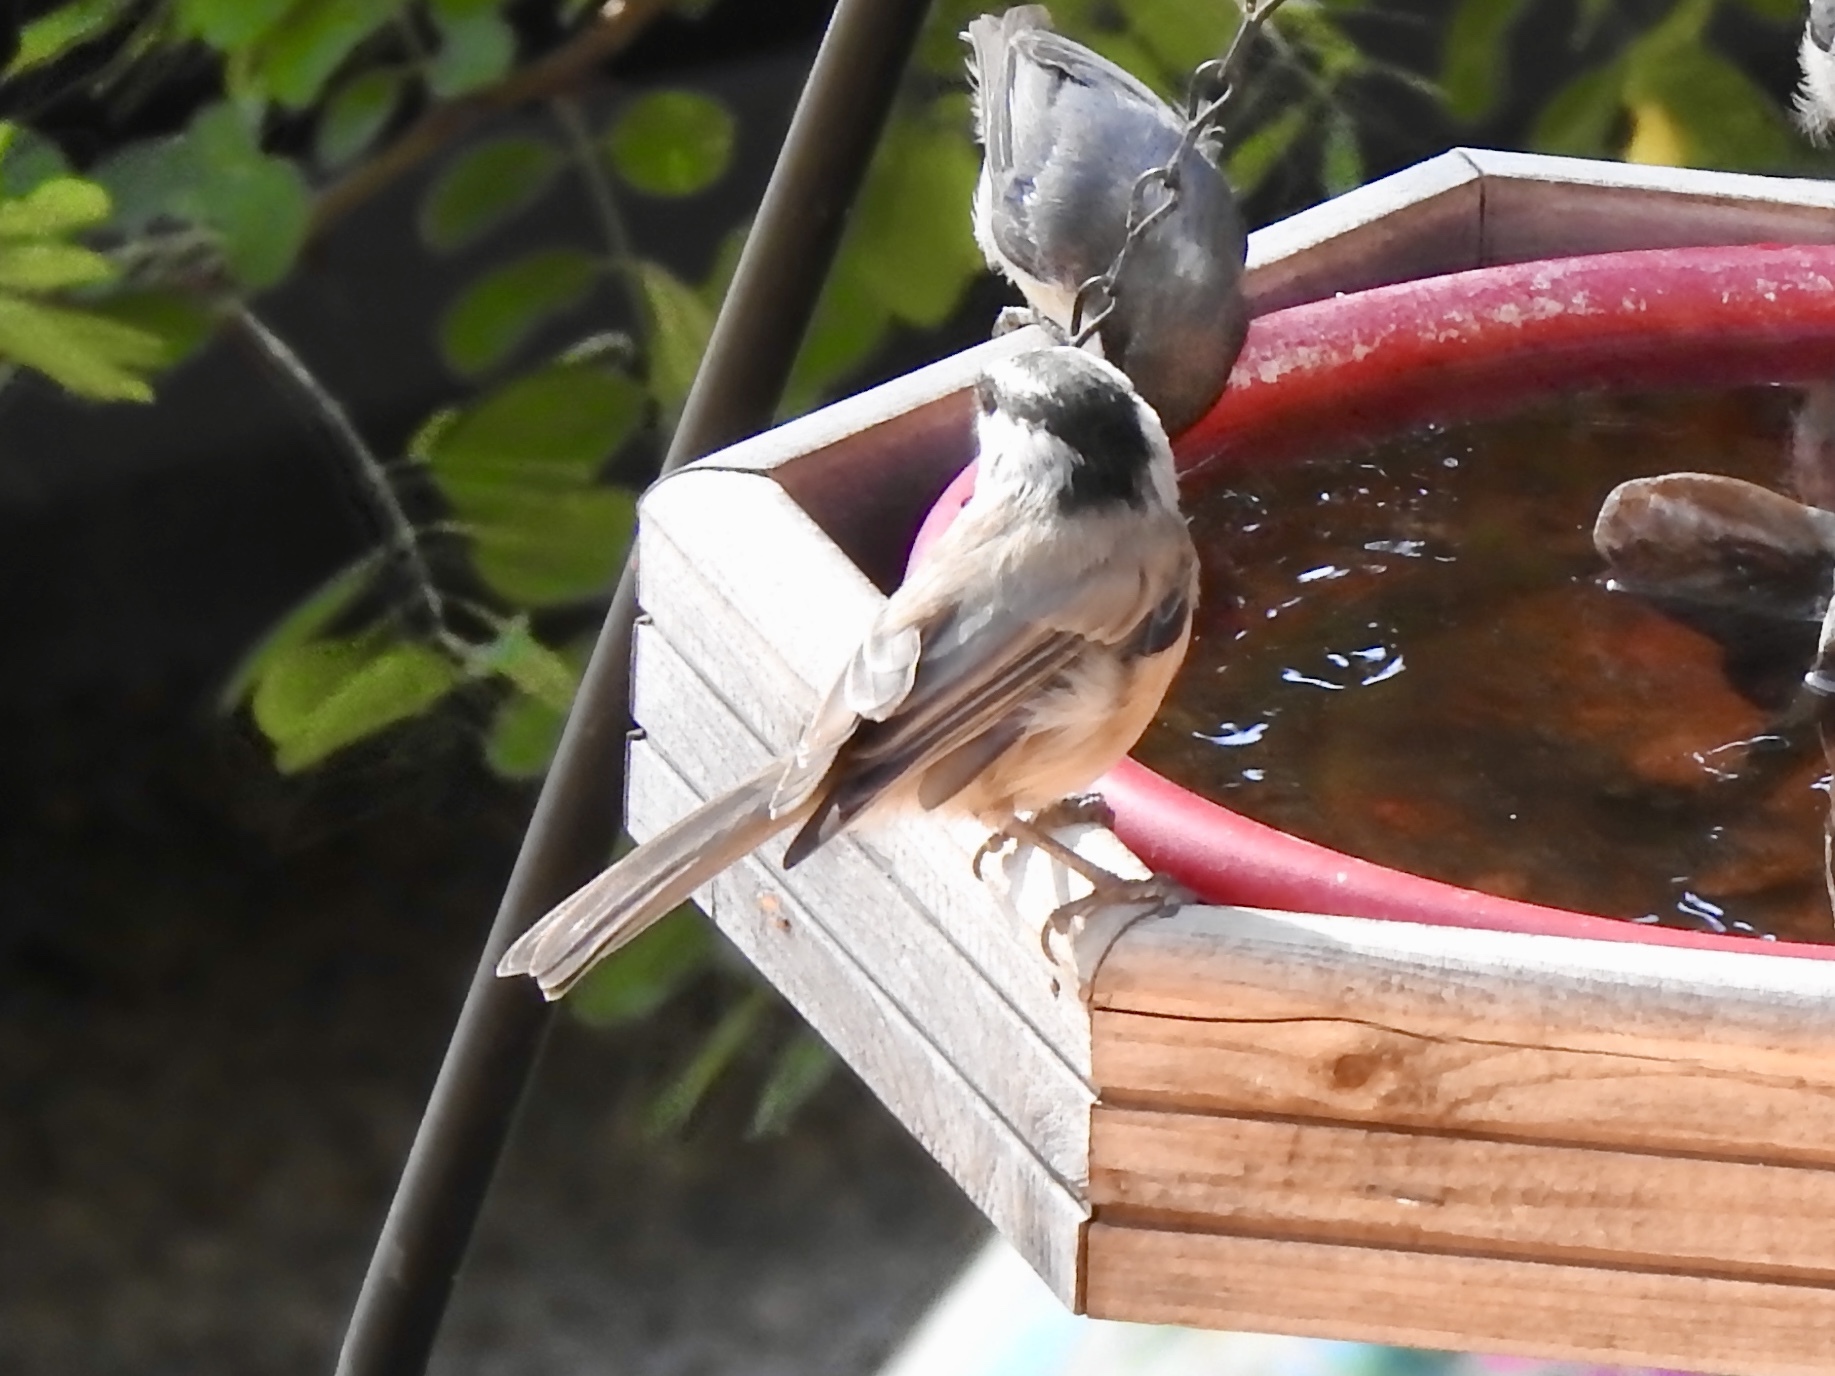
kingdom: Animalia
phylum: Chordata
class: Aves
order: Passeriformes
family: Paridae
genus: Poecile
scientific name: Poecile gambeli
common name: Mountain chickadee
